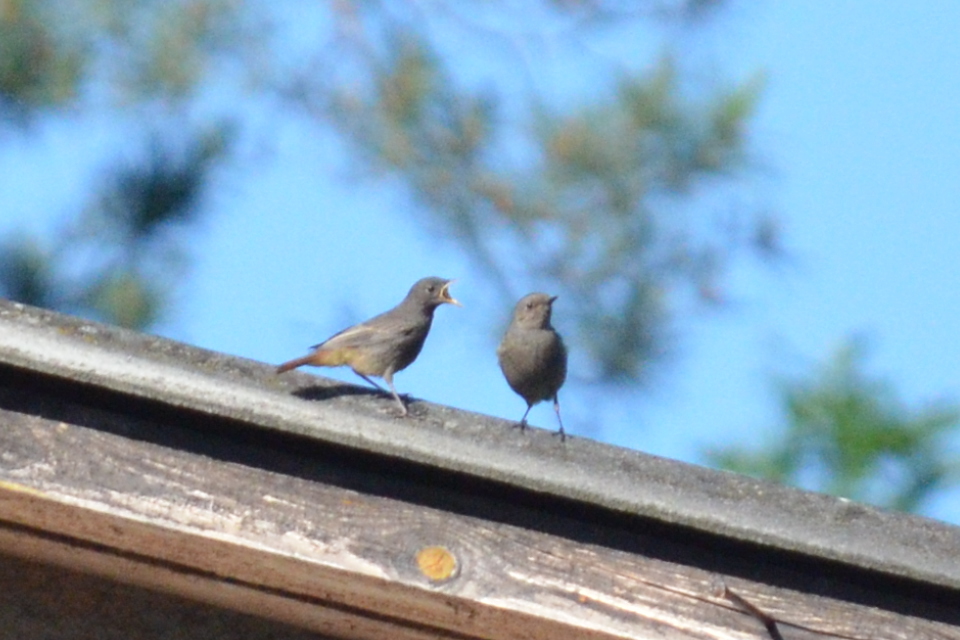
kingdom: Animalia
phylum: Chordata
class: Aves
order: Passeriformes
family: Muscicapidae
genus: Phoenicurus
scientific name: Phoenicurus ochruros
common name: Black redstart
